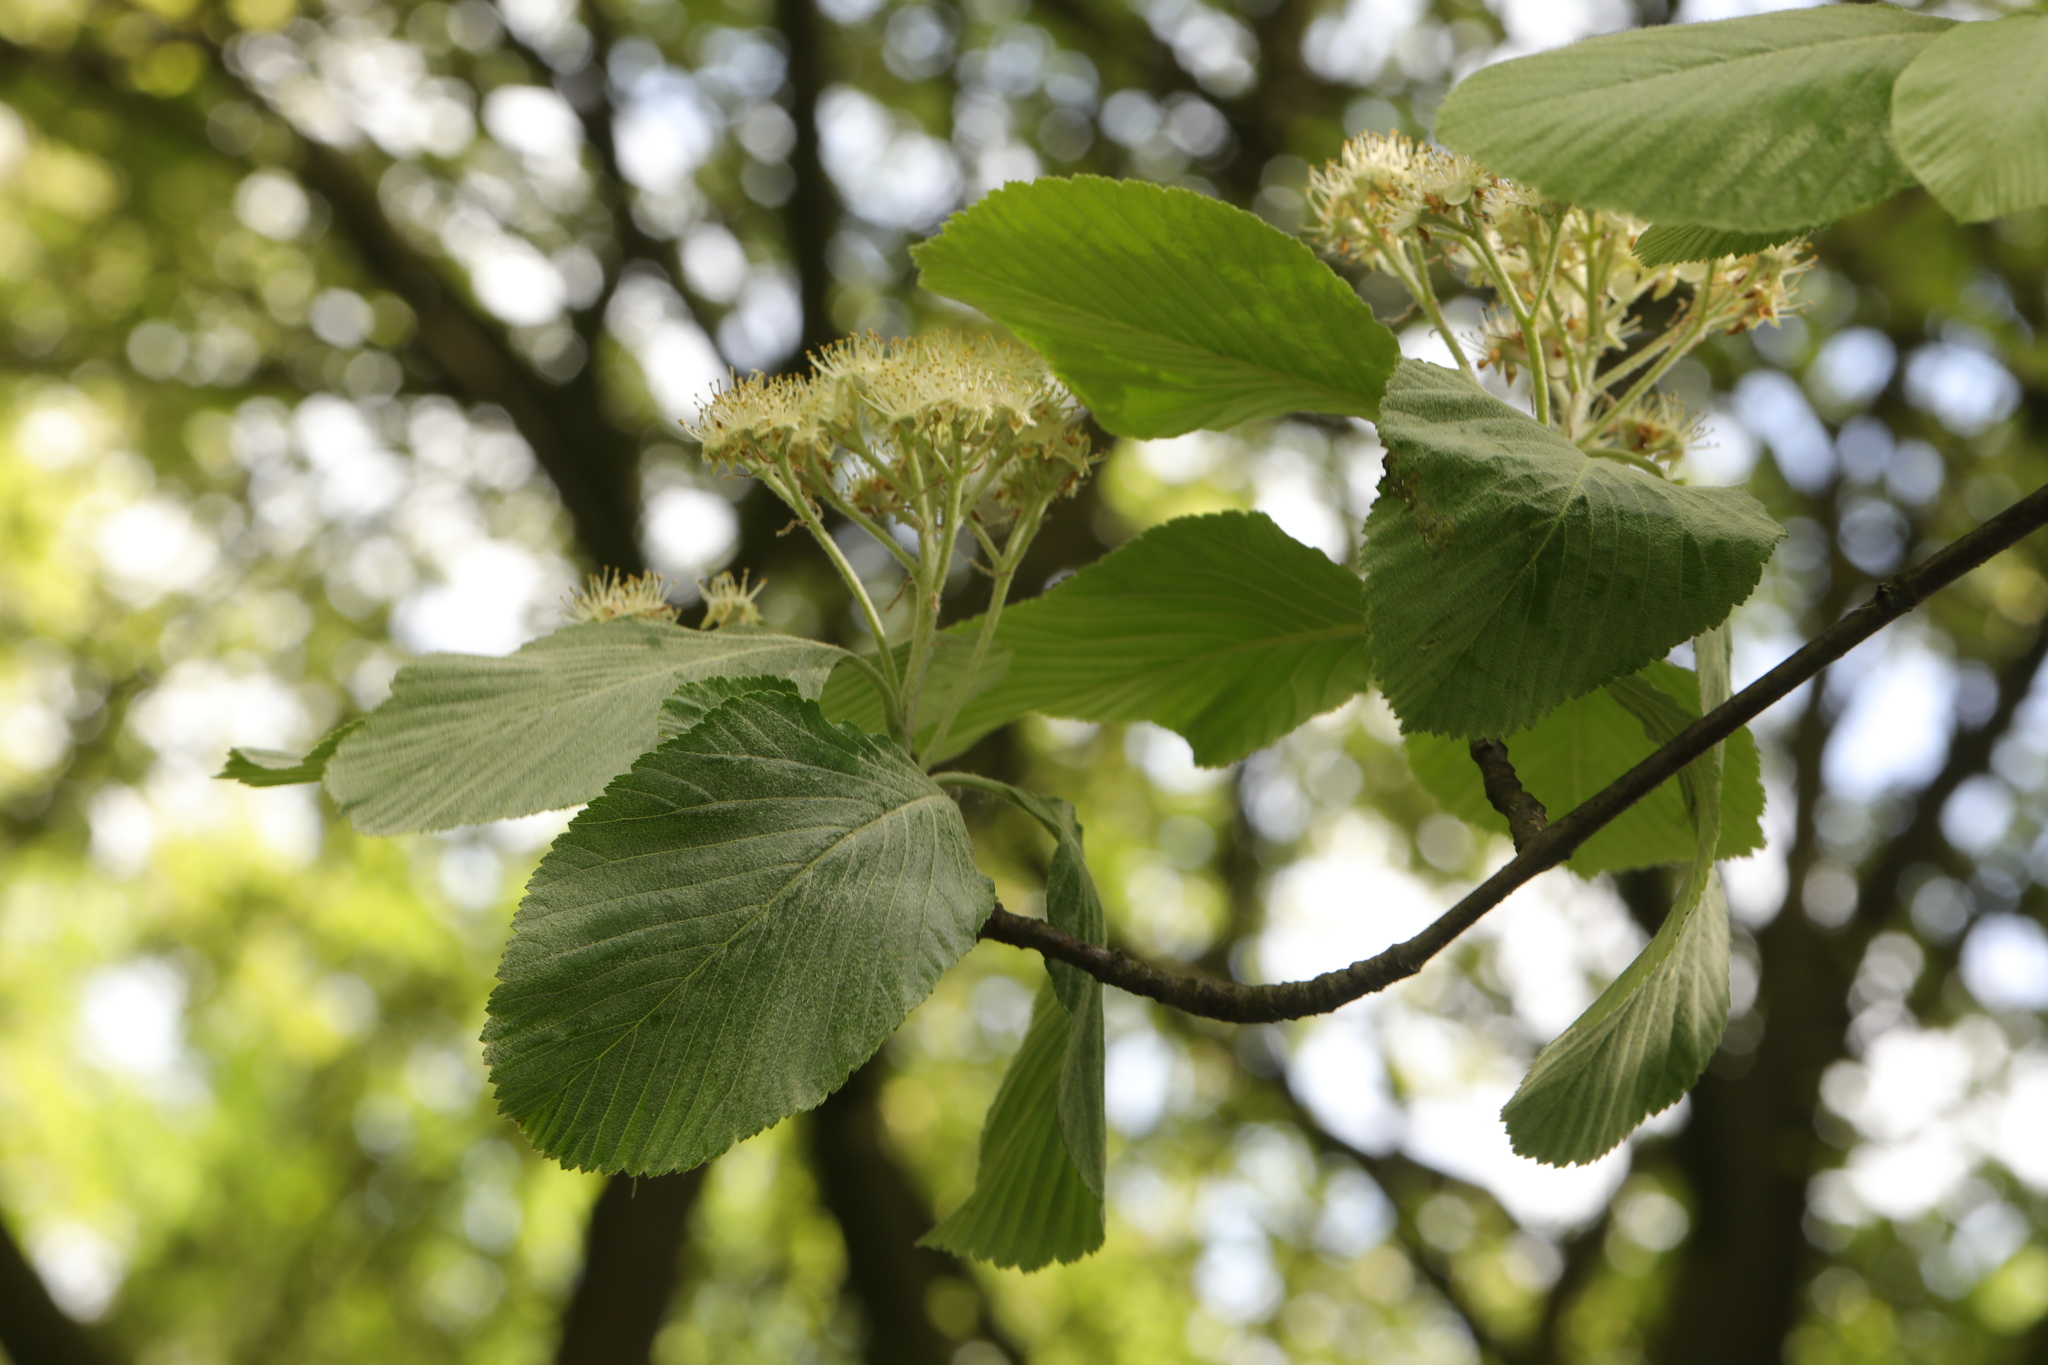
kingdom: Plantae
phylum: Tracheophyta
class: Magnoliopsida
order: Rosales
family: Rosaceae
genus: Aria
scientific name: Aria edulis
